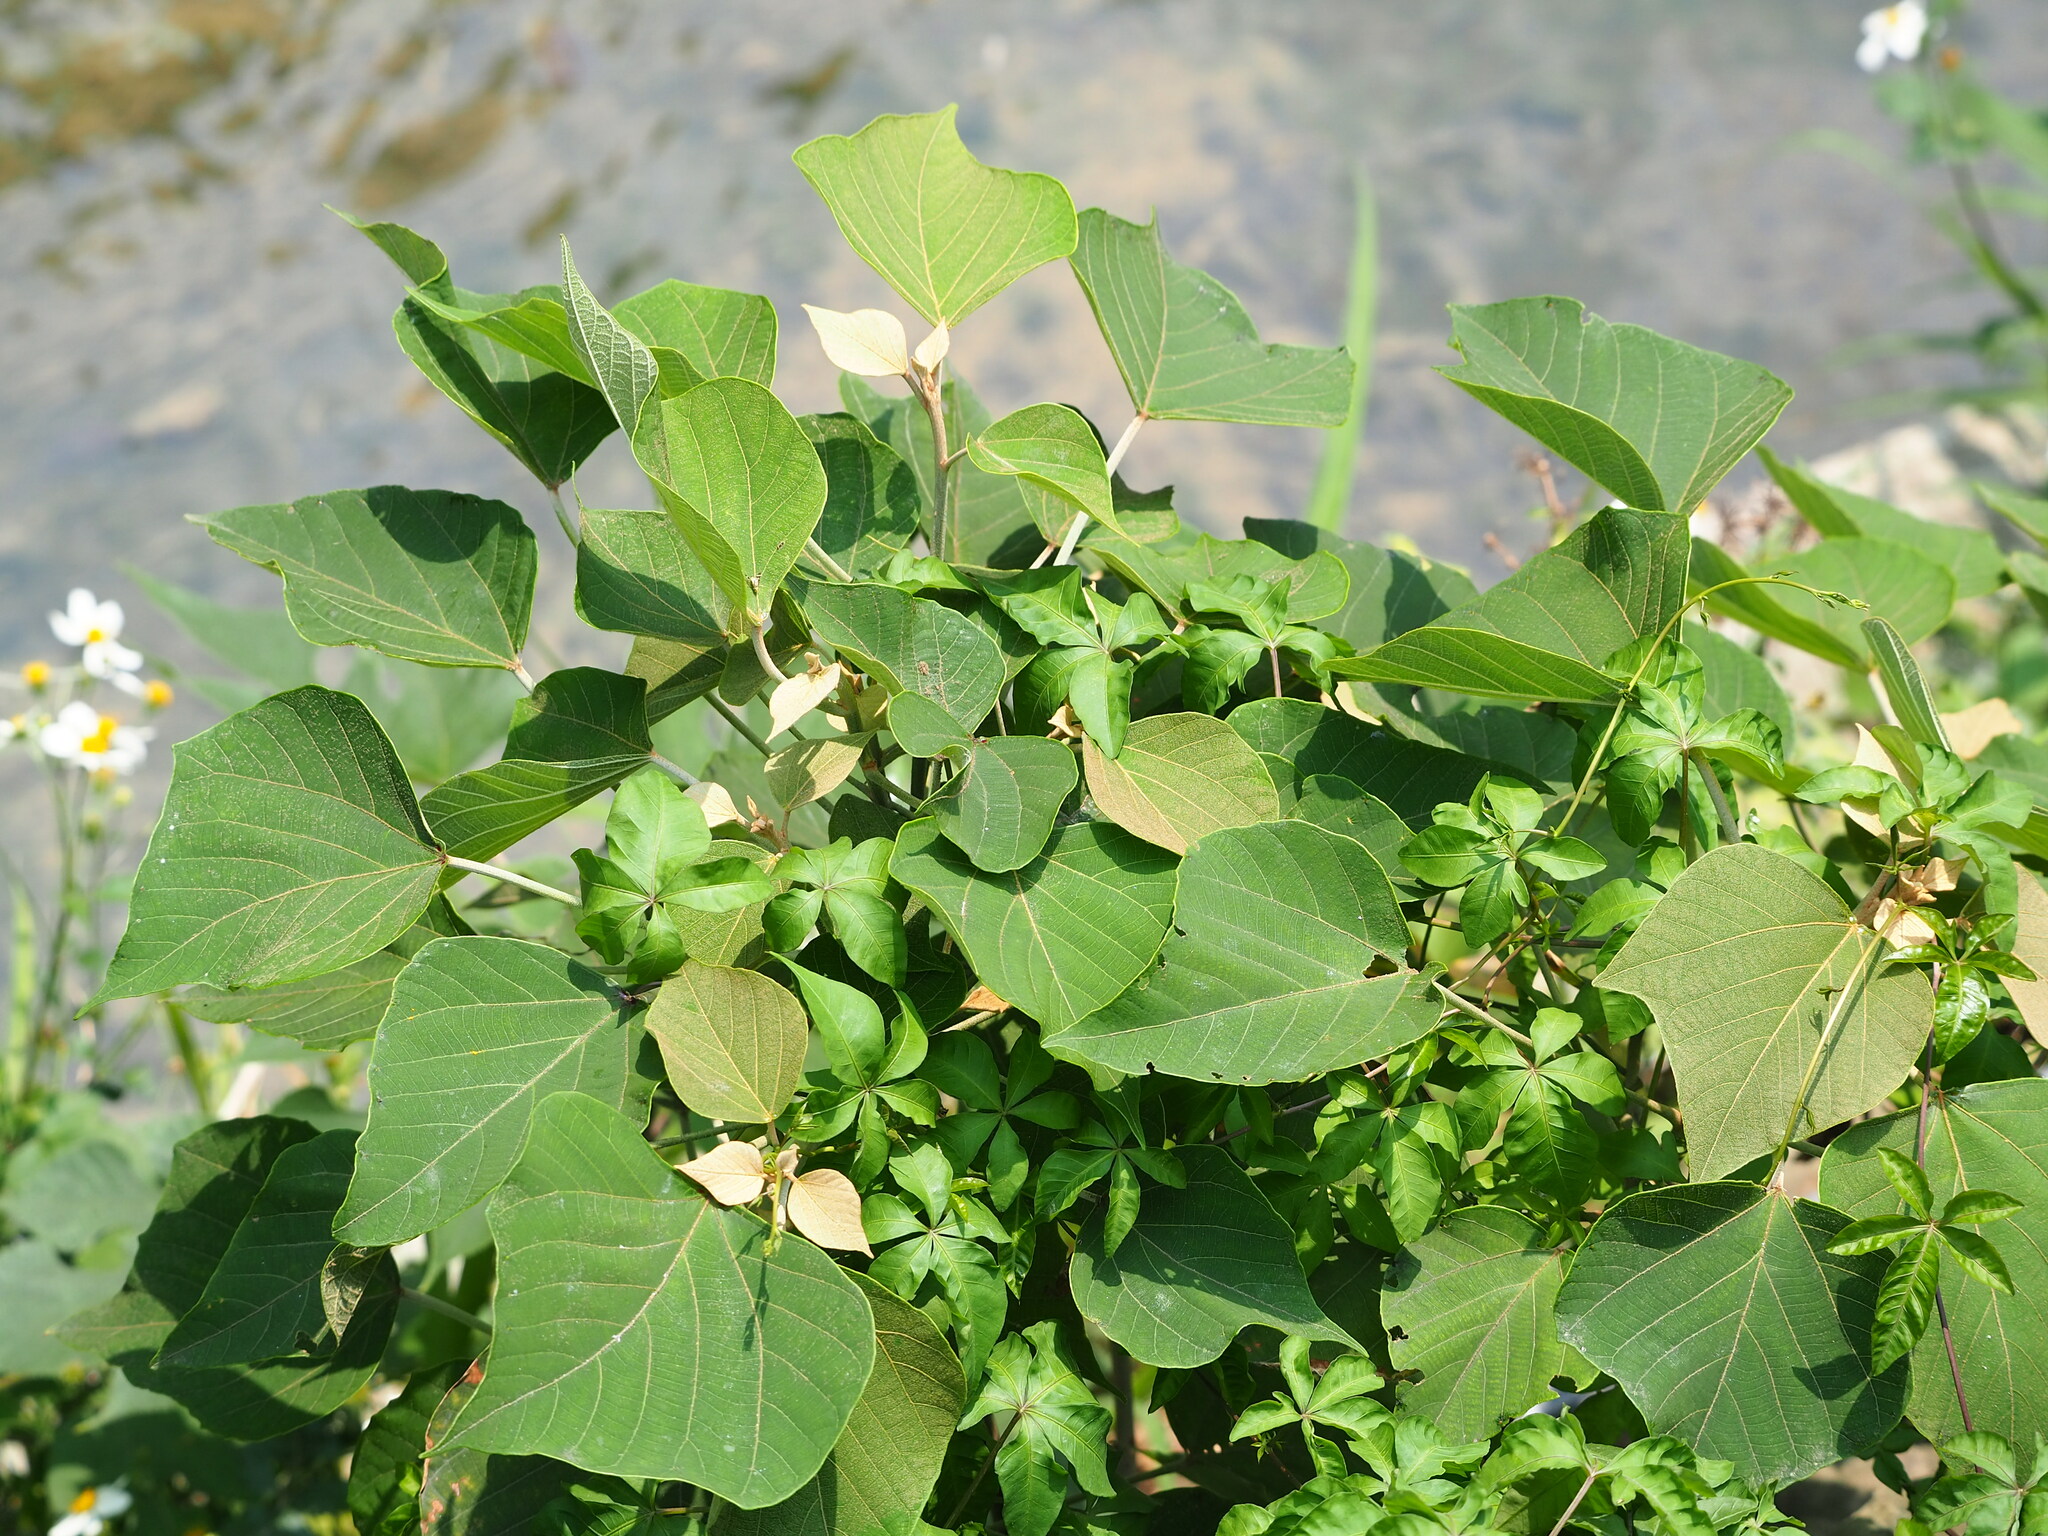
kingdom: Plantae
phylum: Tracheophyta
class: Magnoliopsida
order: Malpighiales
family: Euphorbiaceae
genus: Mallotus
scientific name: Mallotus japonicus
